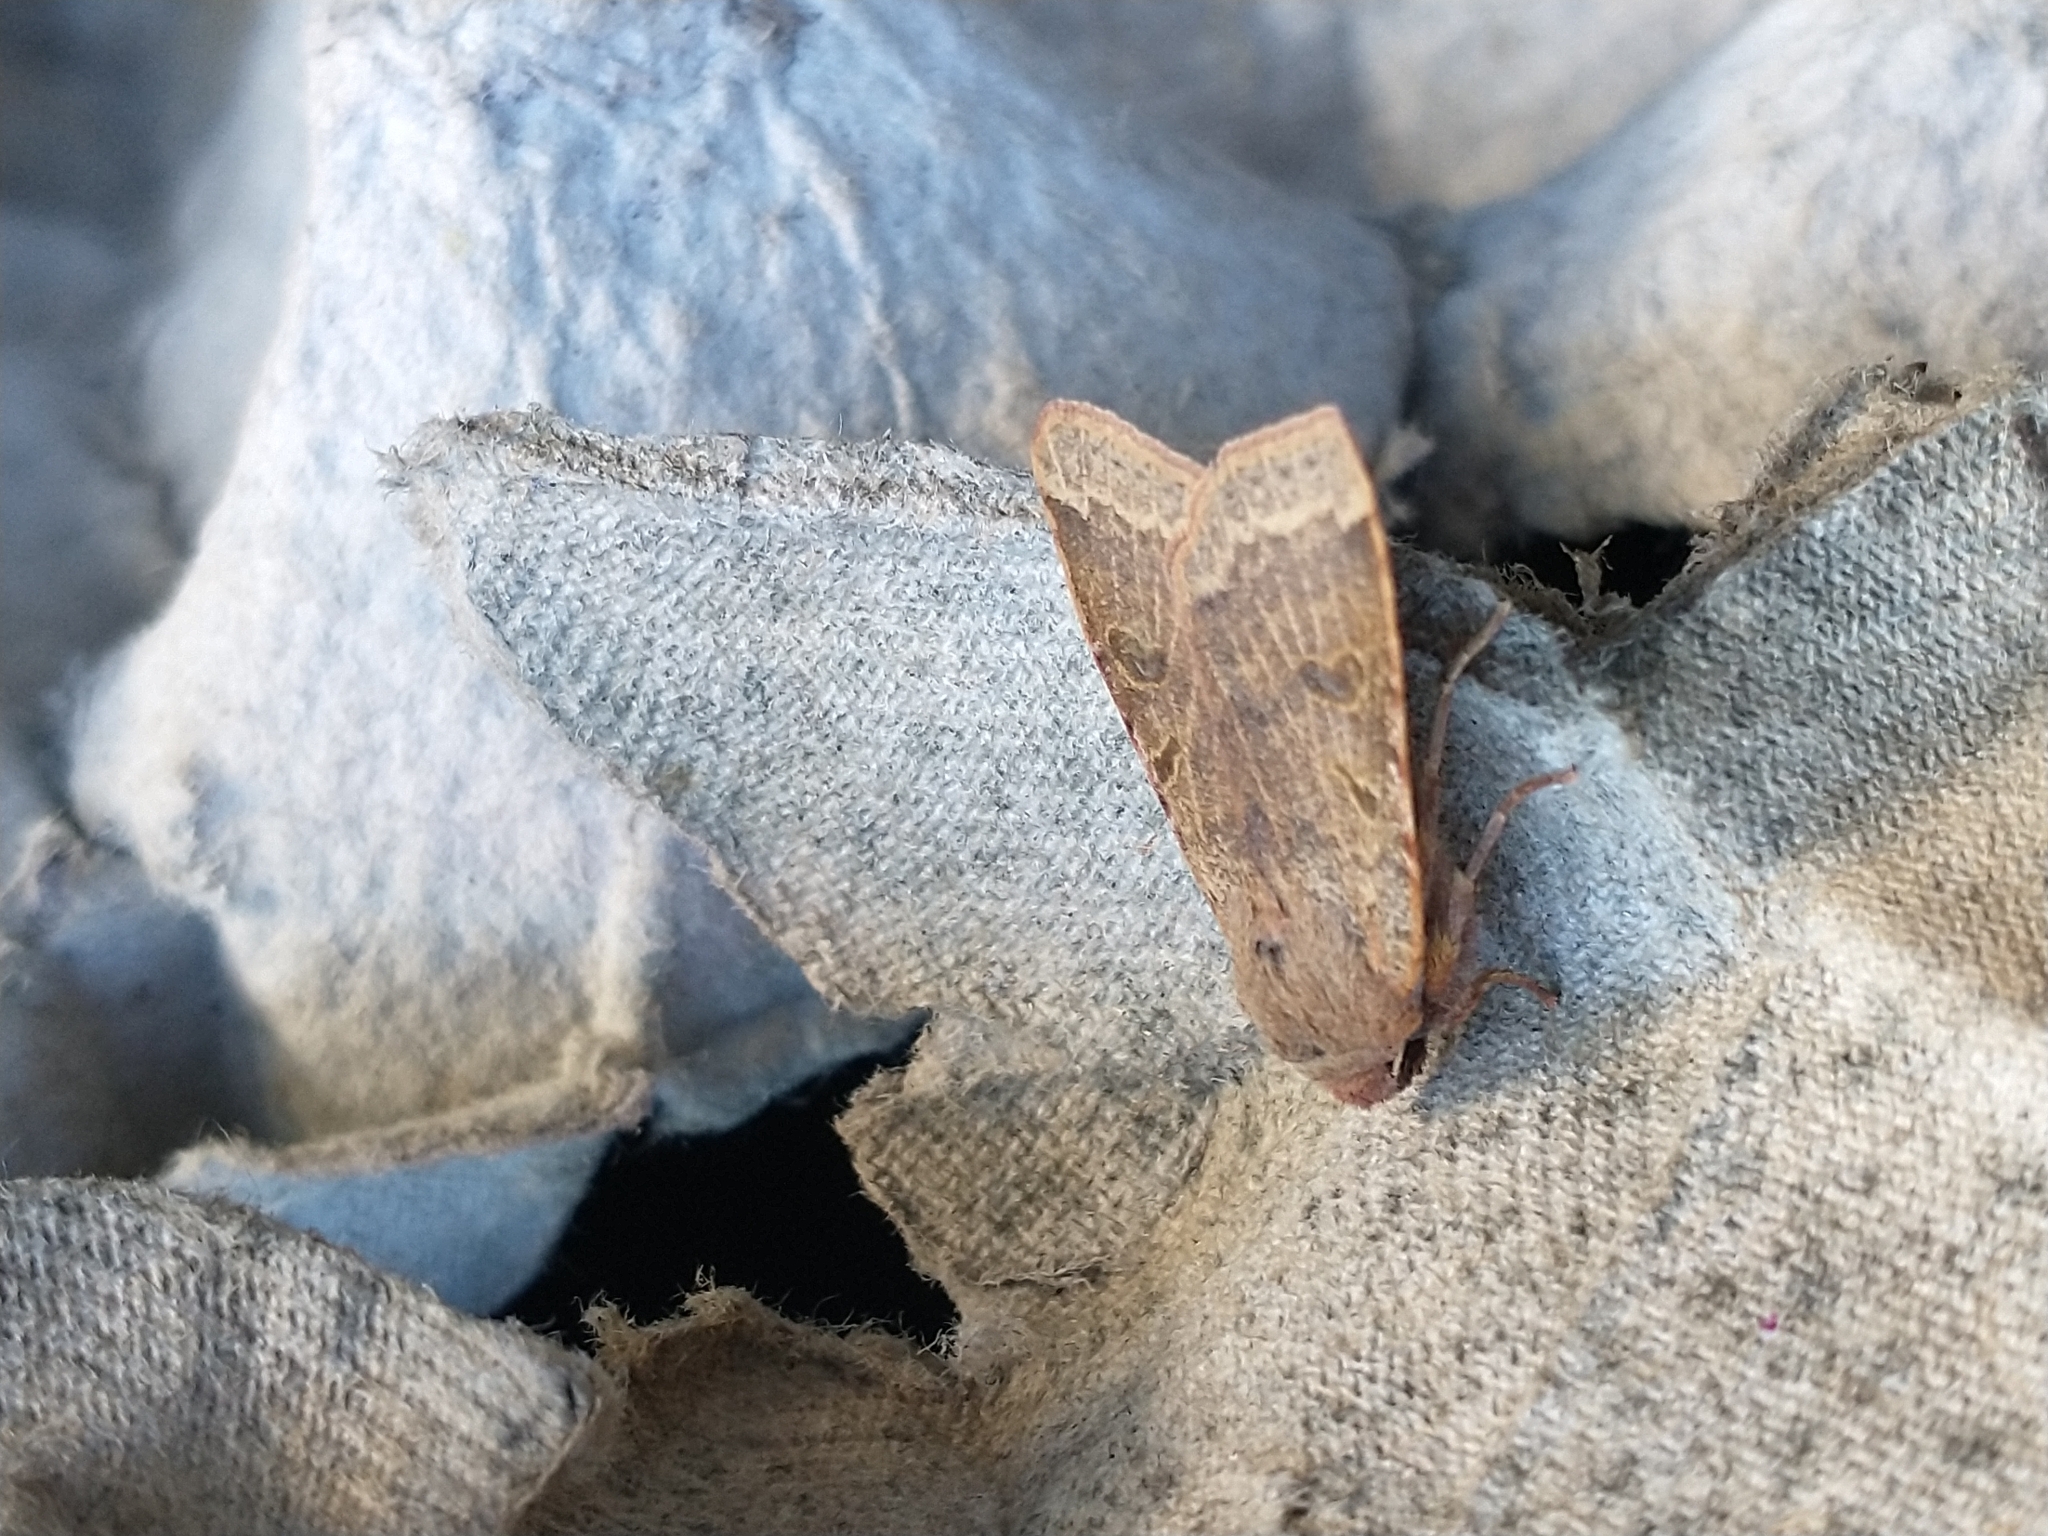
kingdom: Animalia
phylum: Arthropoda
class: Insecta
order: Lepidoptera
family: Noctuidae
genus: Agrochola
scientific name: Agrochola lychnidis
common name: Beaded chestnut
